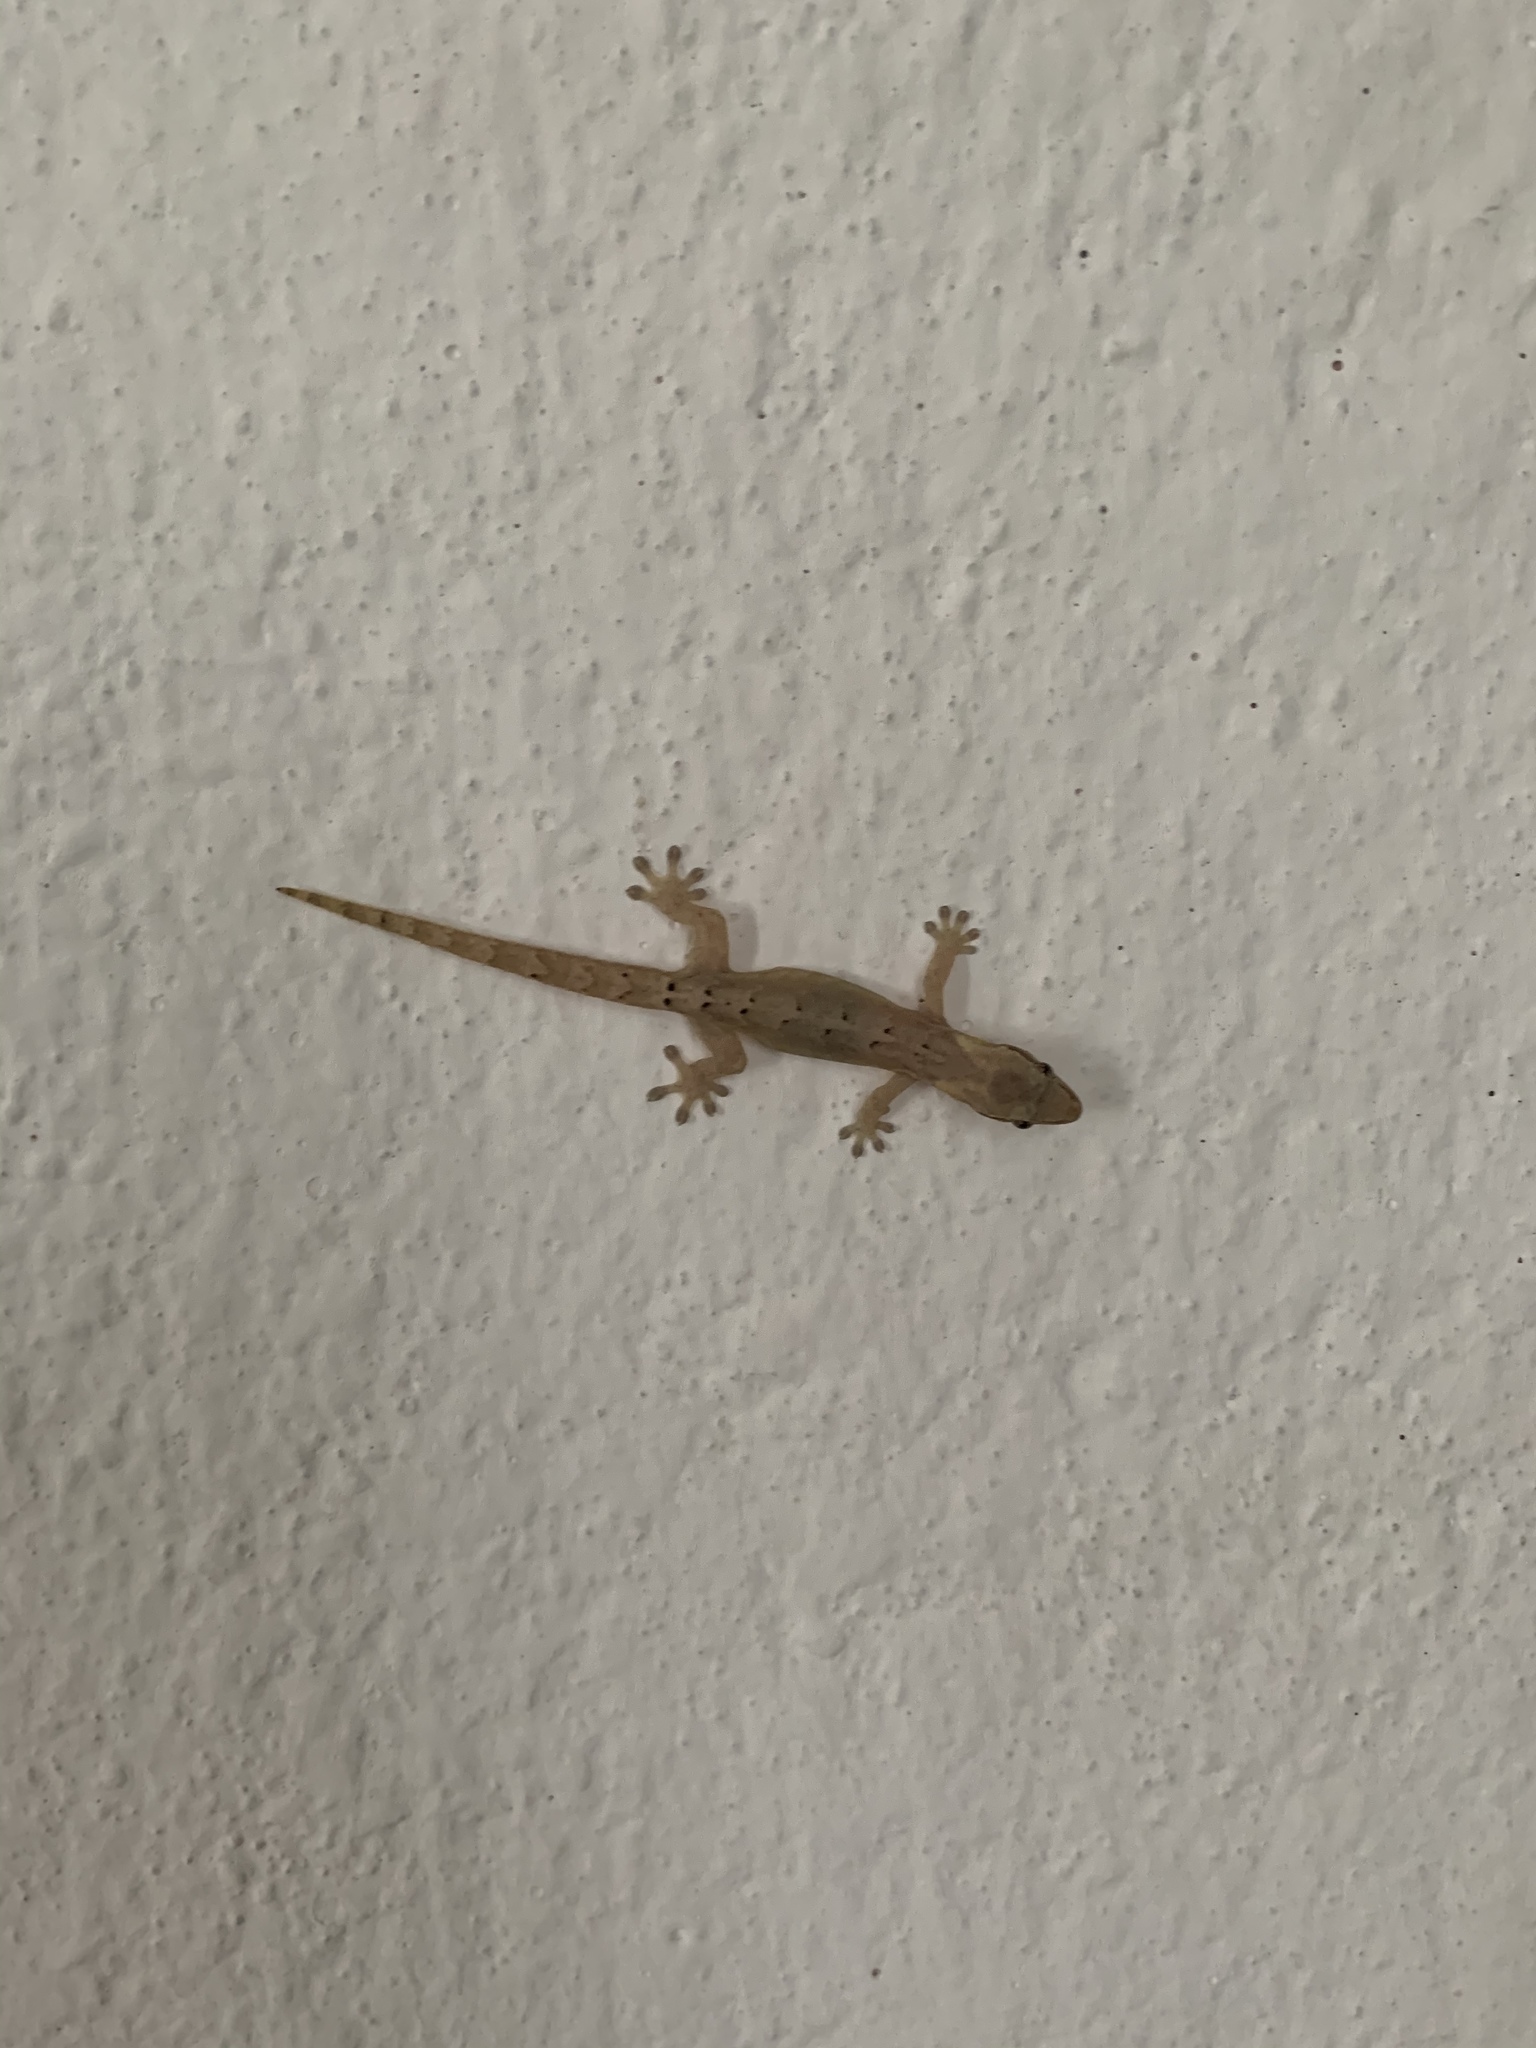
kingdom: Animalia
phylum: Chordata
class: Squamata
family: Gekkonidae
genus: Lepidodactylus
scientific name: Lepidodactylus lugubris
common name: Mourning gecko
